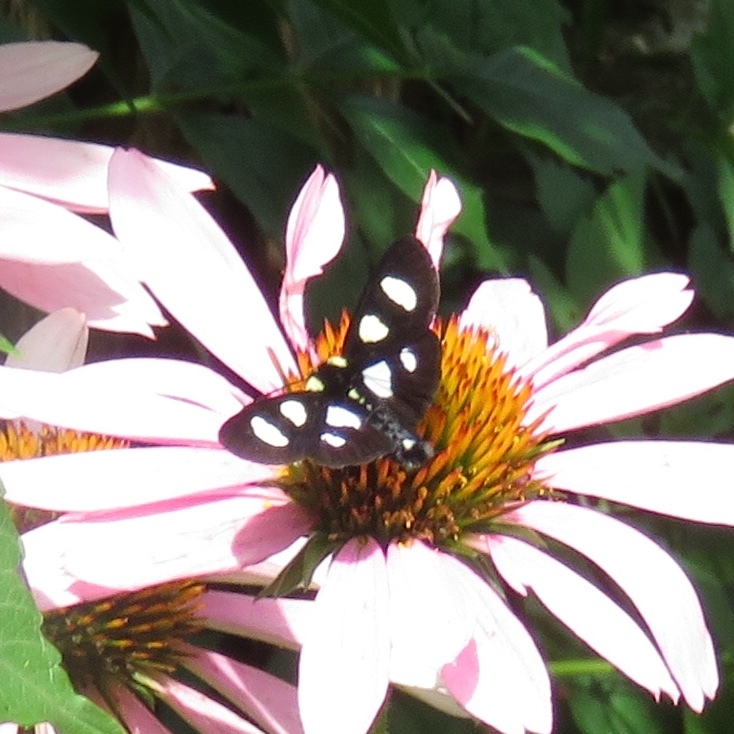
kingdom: Animalia
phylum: Arthropoda
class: Insecta
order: Lepidoptera
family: Noctuidae
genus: Alypia
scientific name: Alypia octomaculata
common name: Eight-spotted forester
